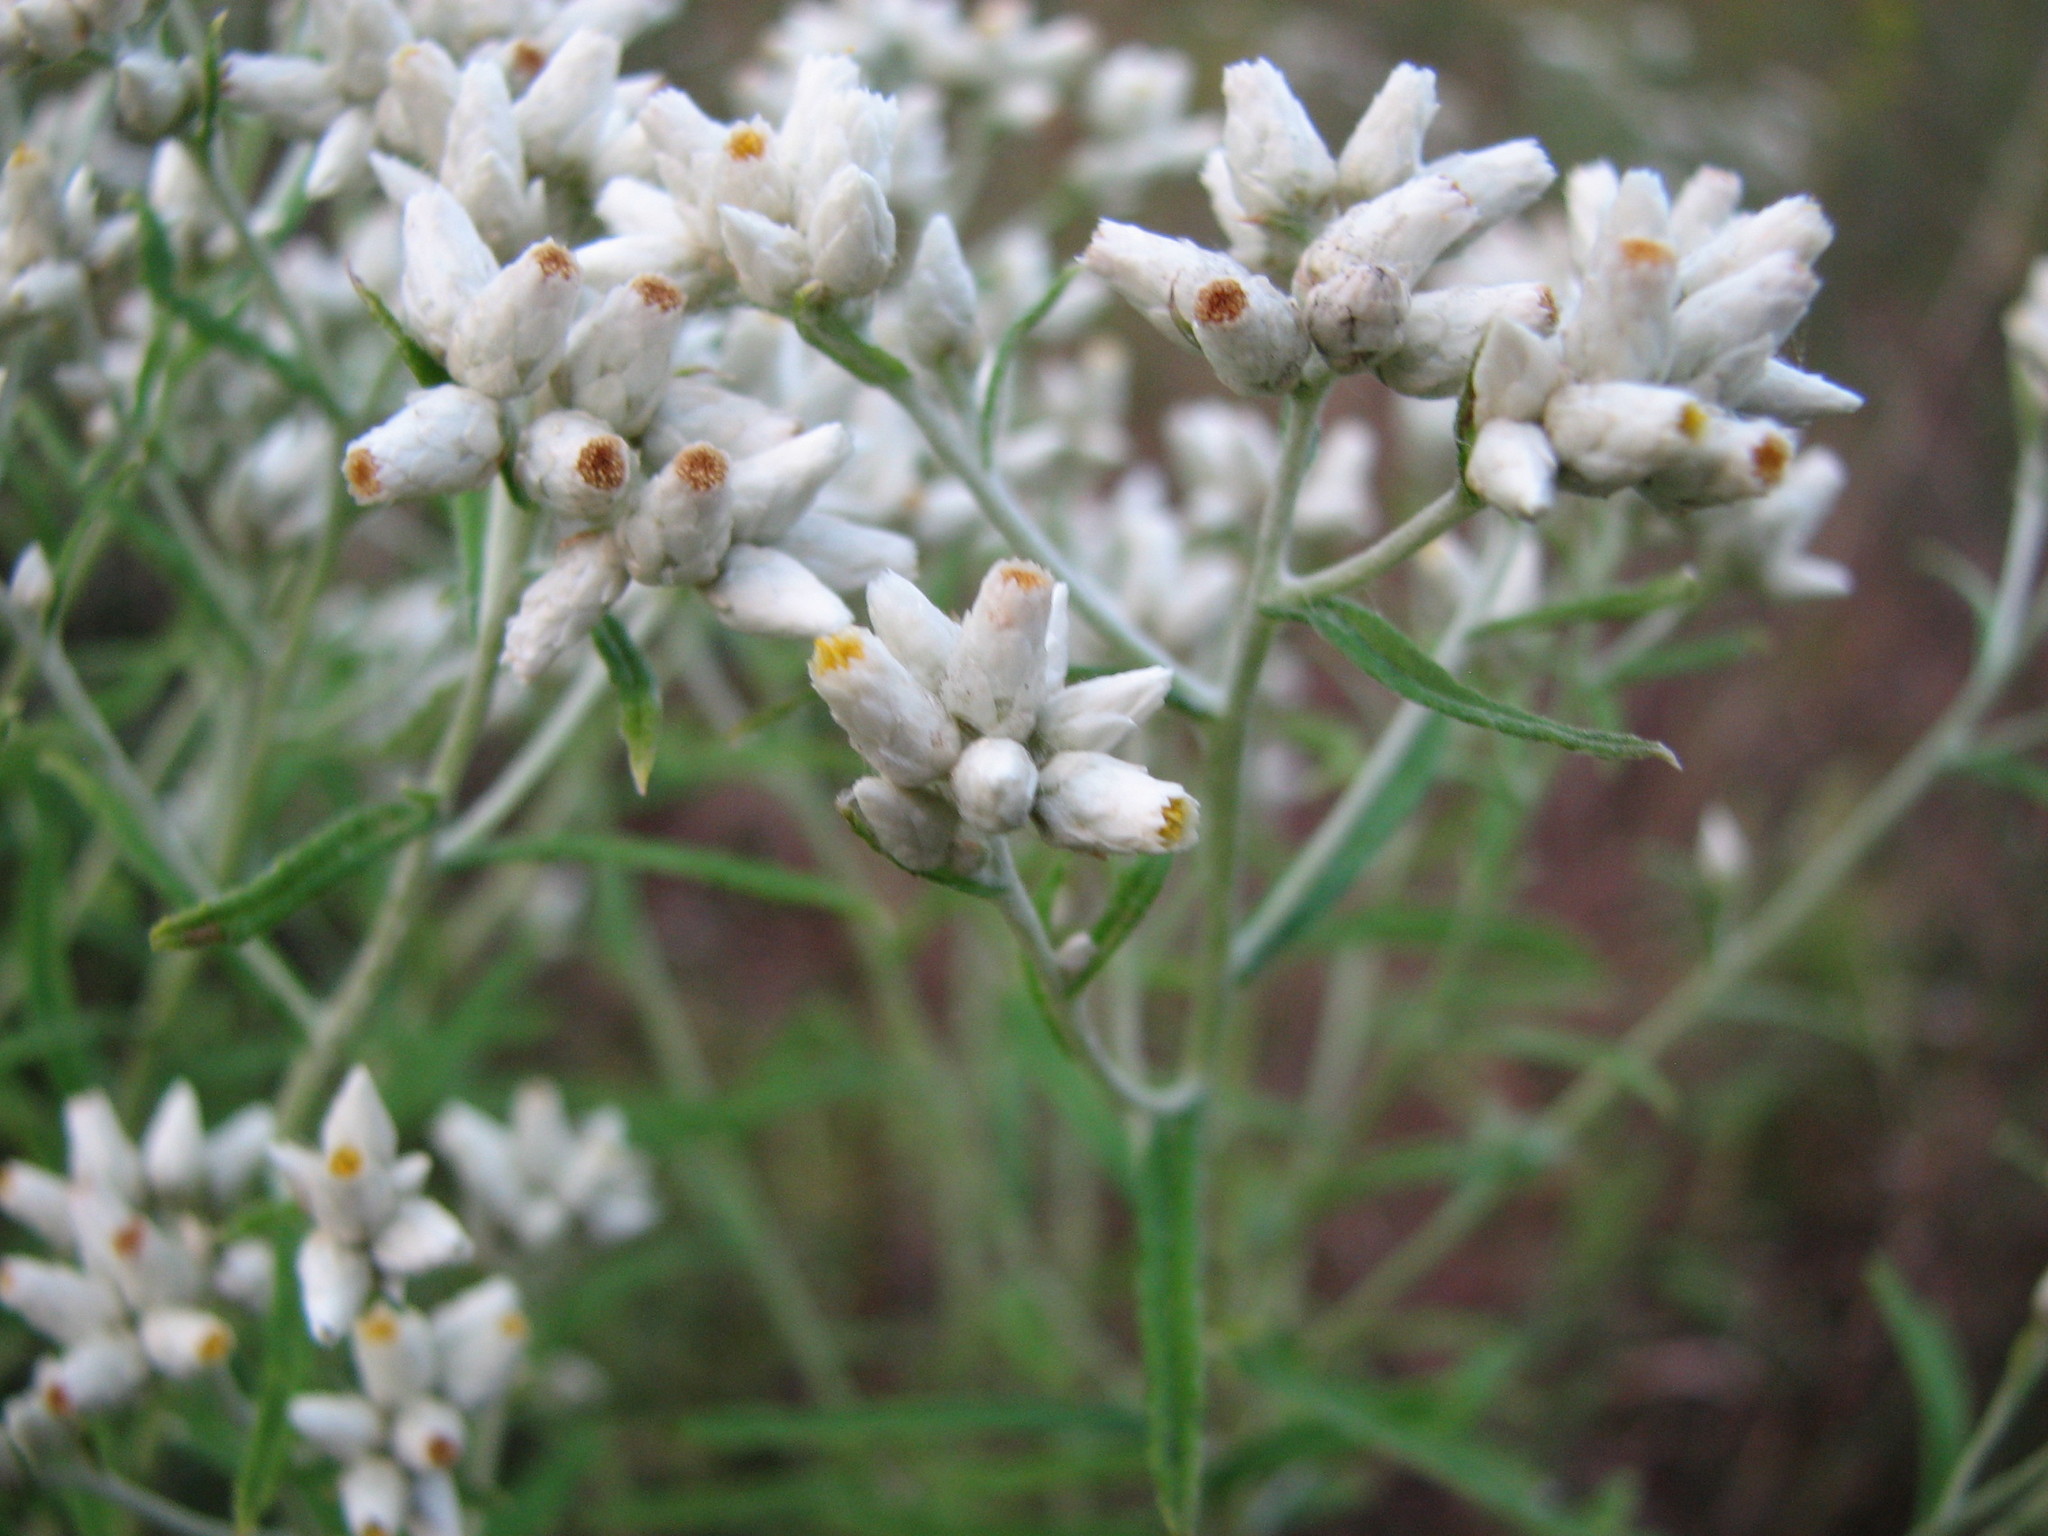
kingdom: Plantae
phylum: Tracheophyta
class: Magnoliopsida
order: Asterales
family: Asteraceae
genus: Pseudognaphalium
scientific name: Pseudognaphalium obtusifolium
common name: Eastern rabbit-tobacco
